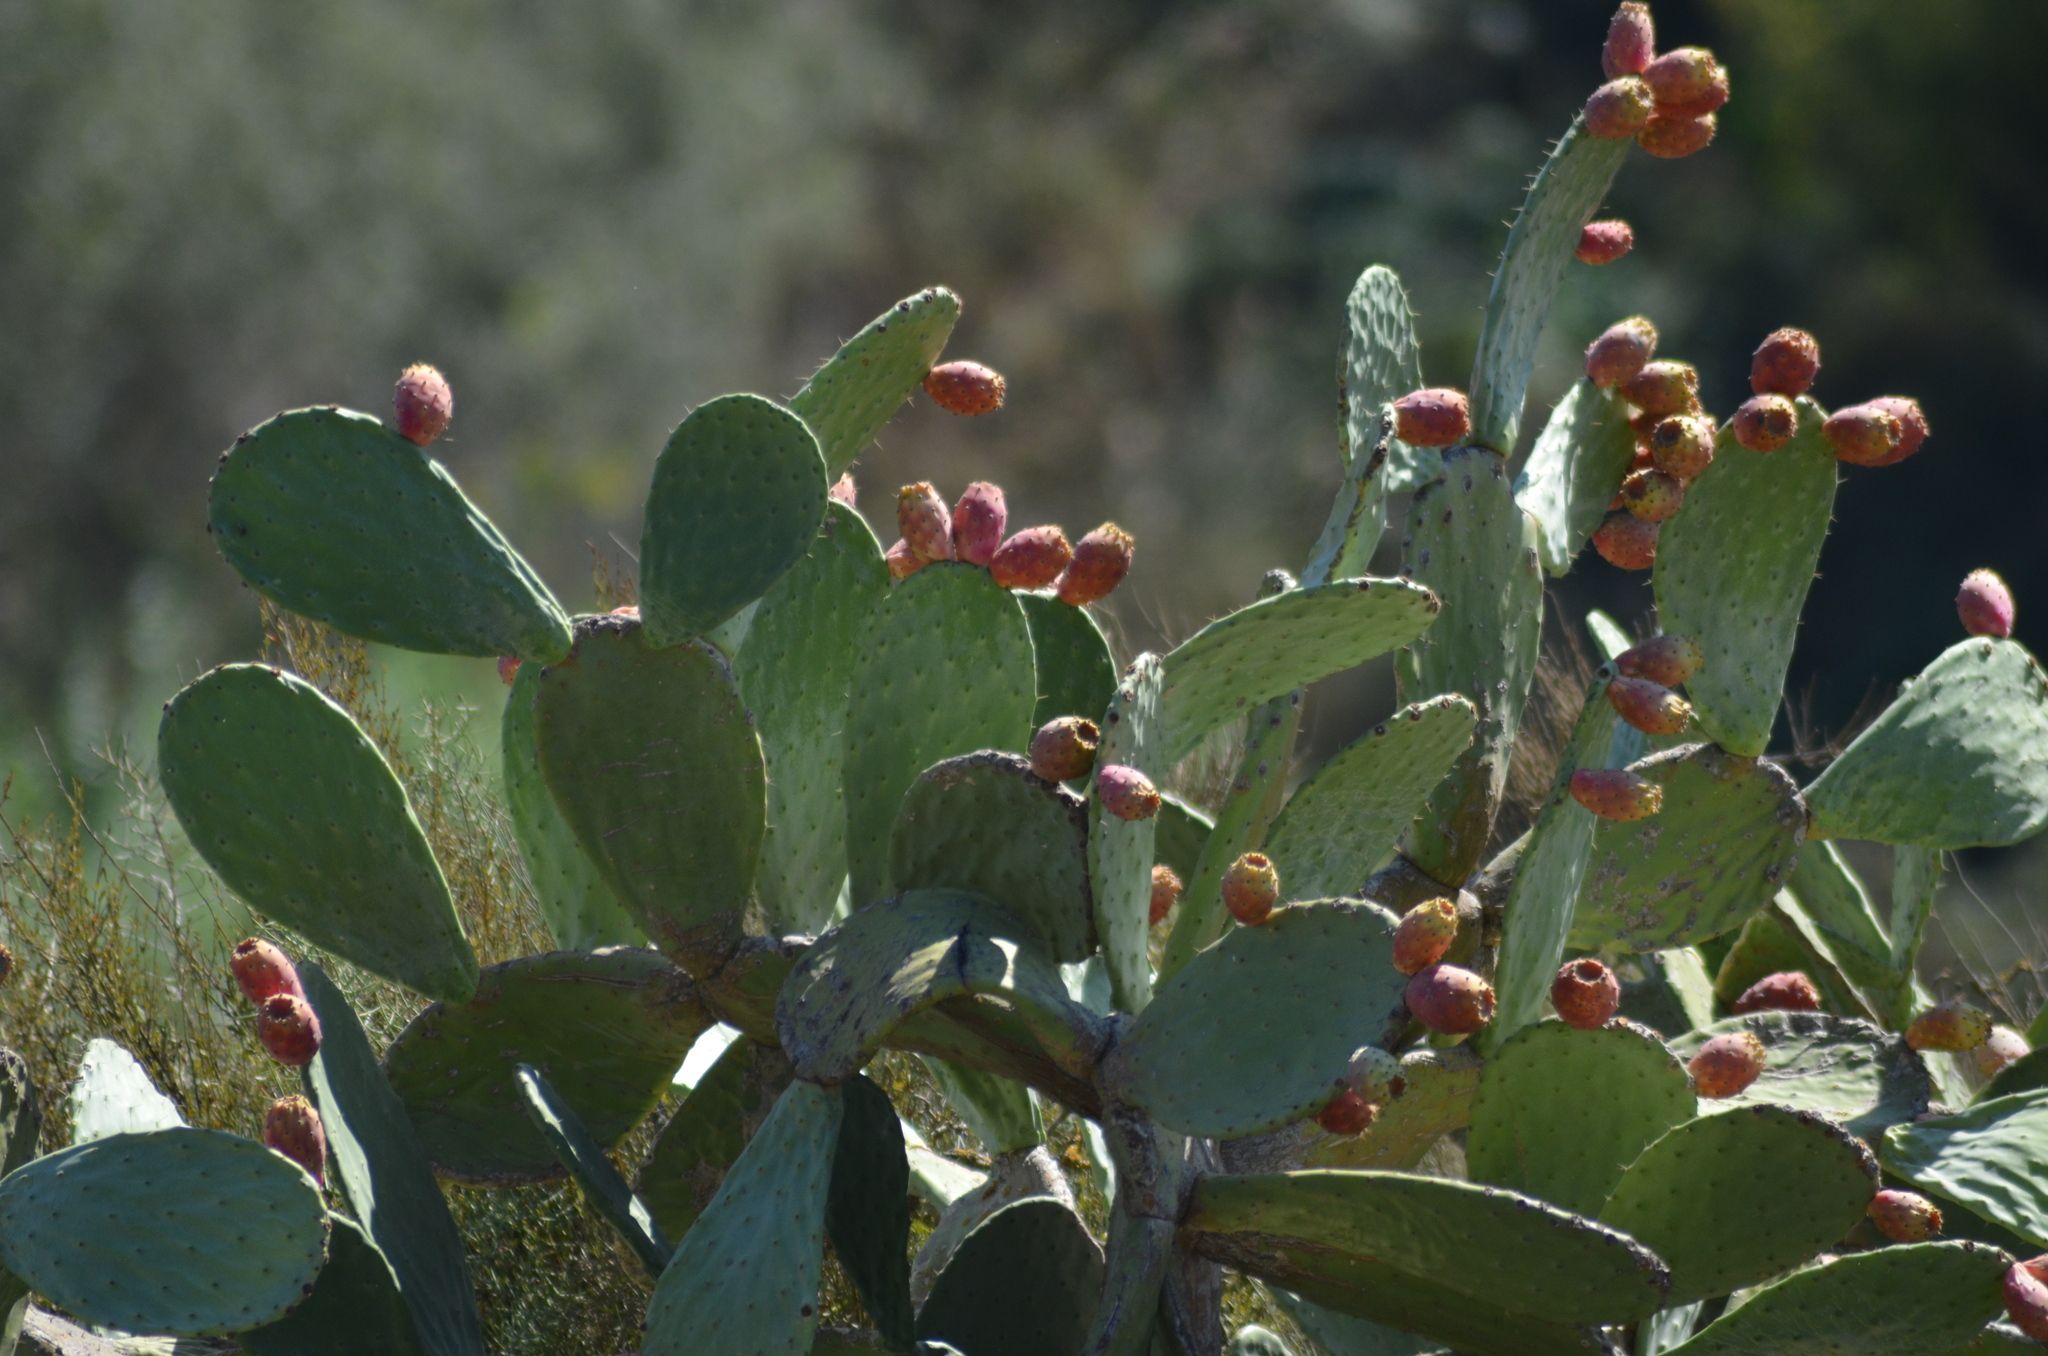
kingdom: Plantae
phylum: Tracheophyta
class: Magnoliopsida
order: Caryophyllales
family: Cactaceae
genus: Opuntia
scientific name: Opuntia ficus-indica
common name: Barbary fig
